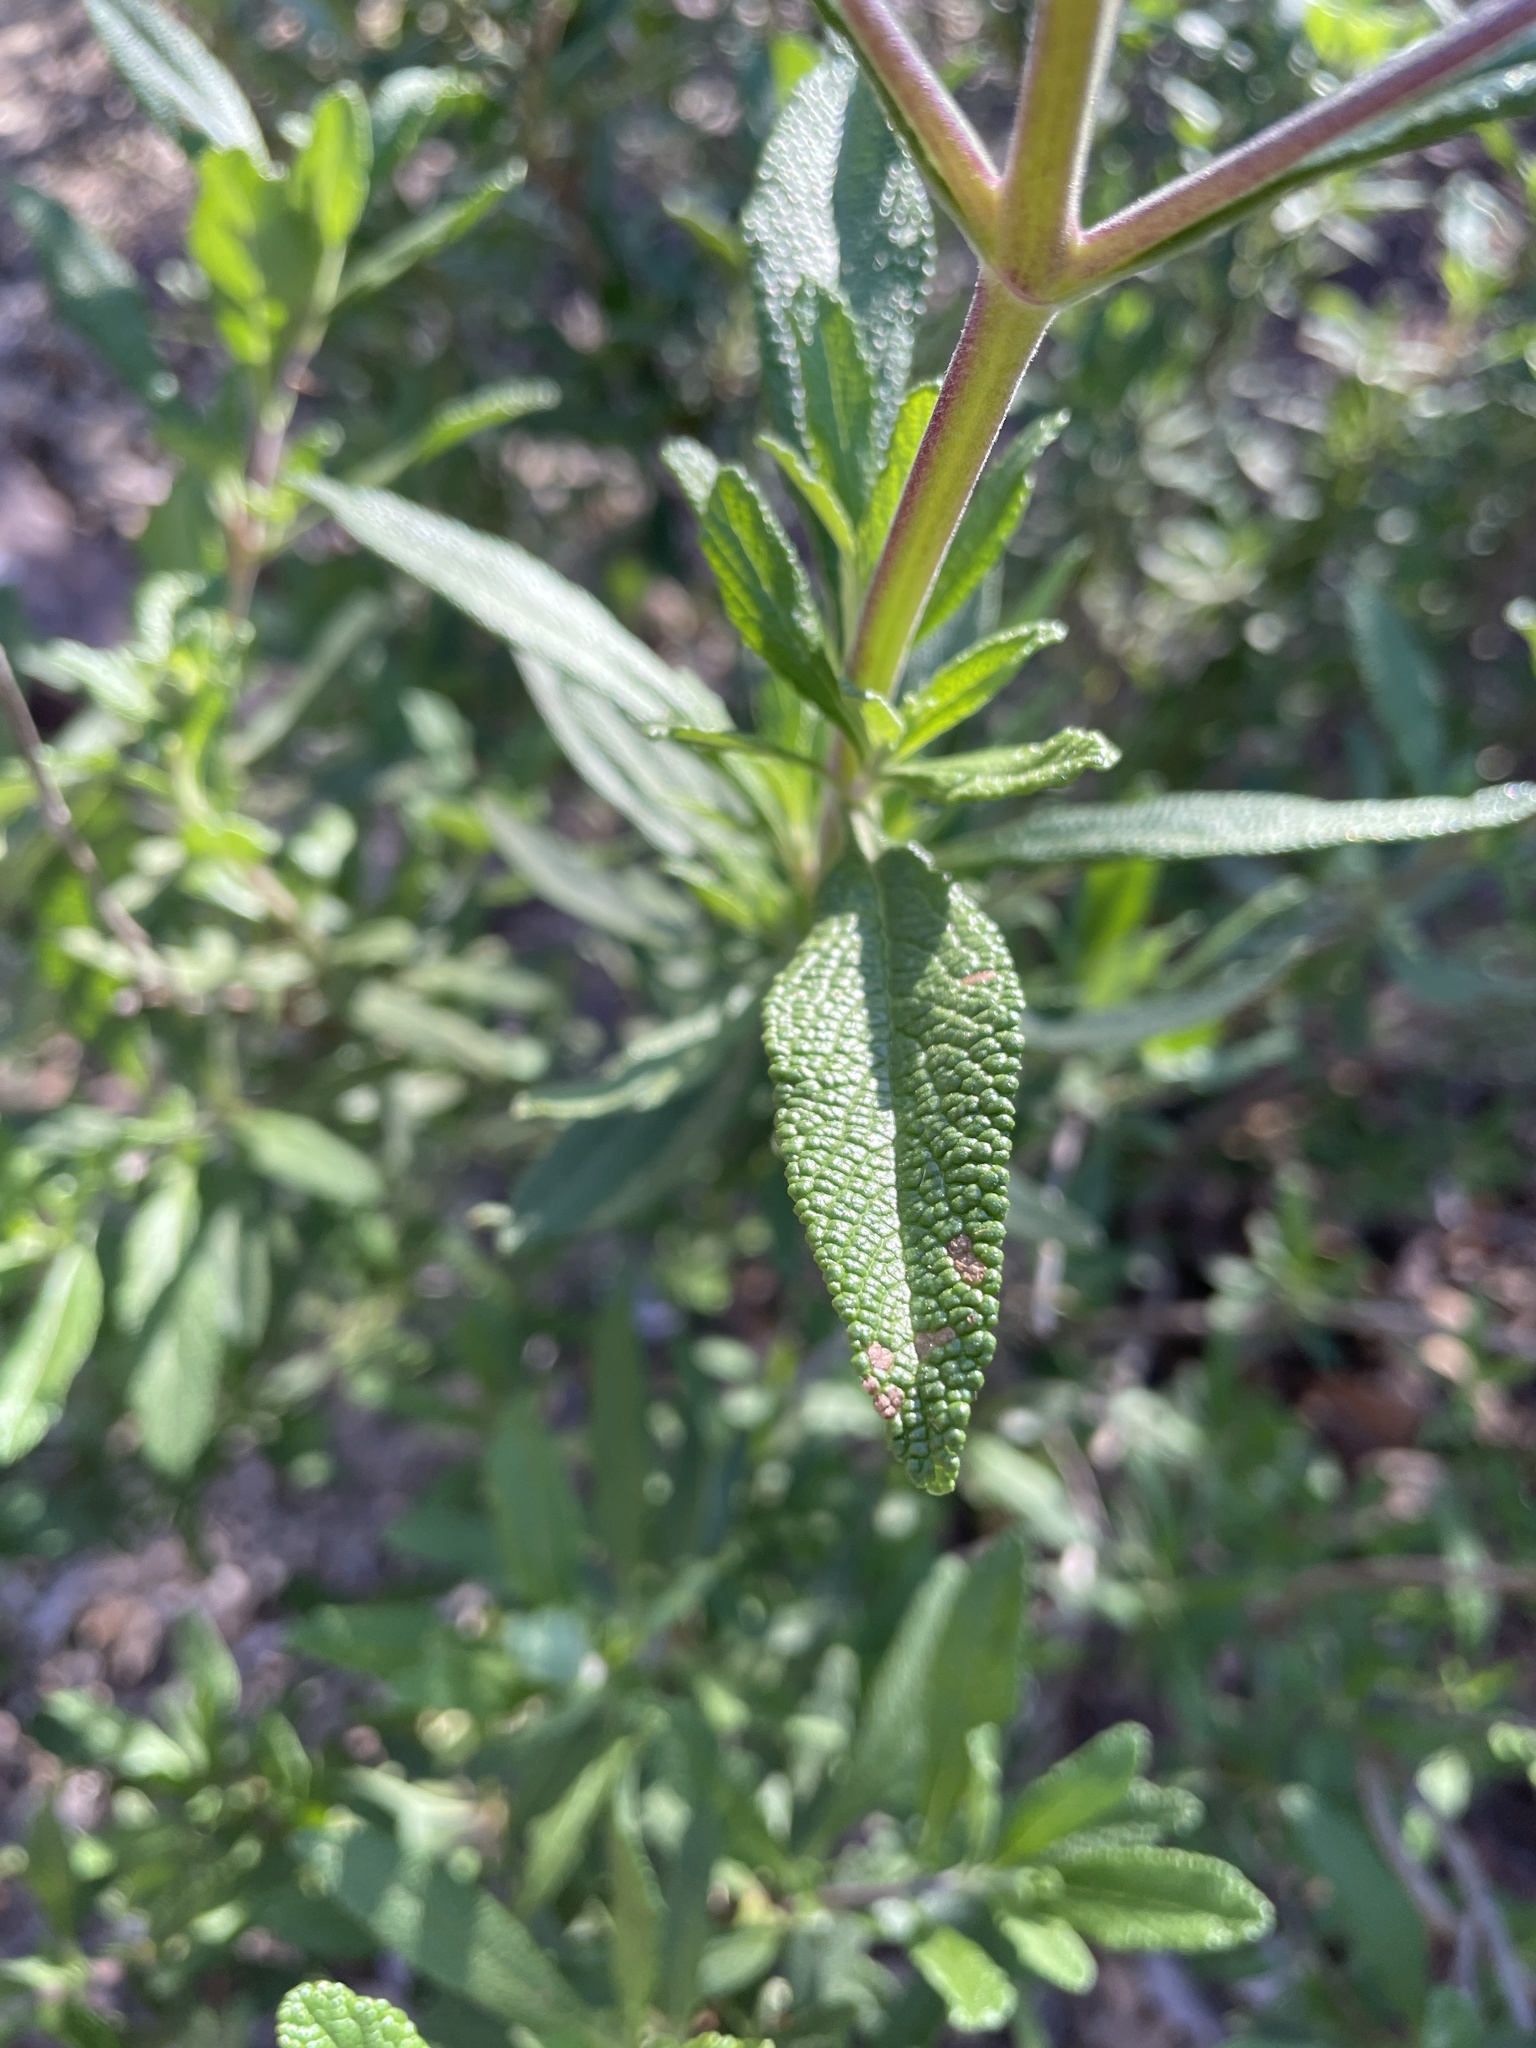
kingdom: Plantae
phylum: Tracheophyta
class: Magnoliopsida
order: Lamiales
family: Lamiaceae
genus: Salvia
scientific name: Salvia mellifera
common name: Black sage
